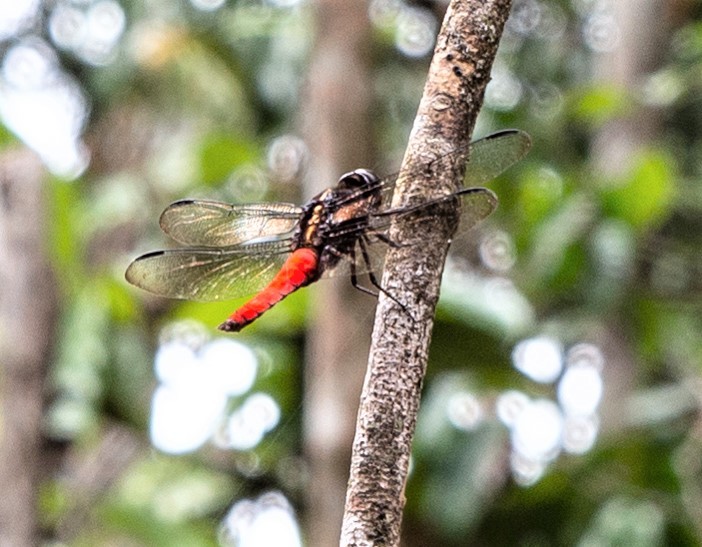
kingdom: Animalia
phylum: Arthropoda
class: Insecta
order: Odonata
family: Libellulidae
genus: Libellula
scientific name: Libellula herculea
